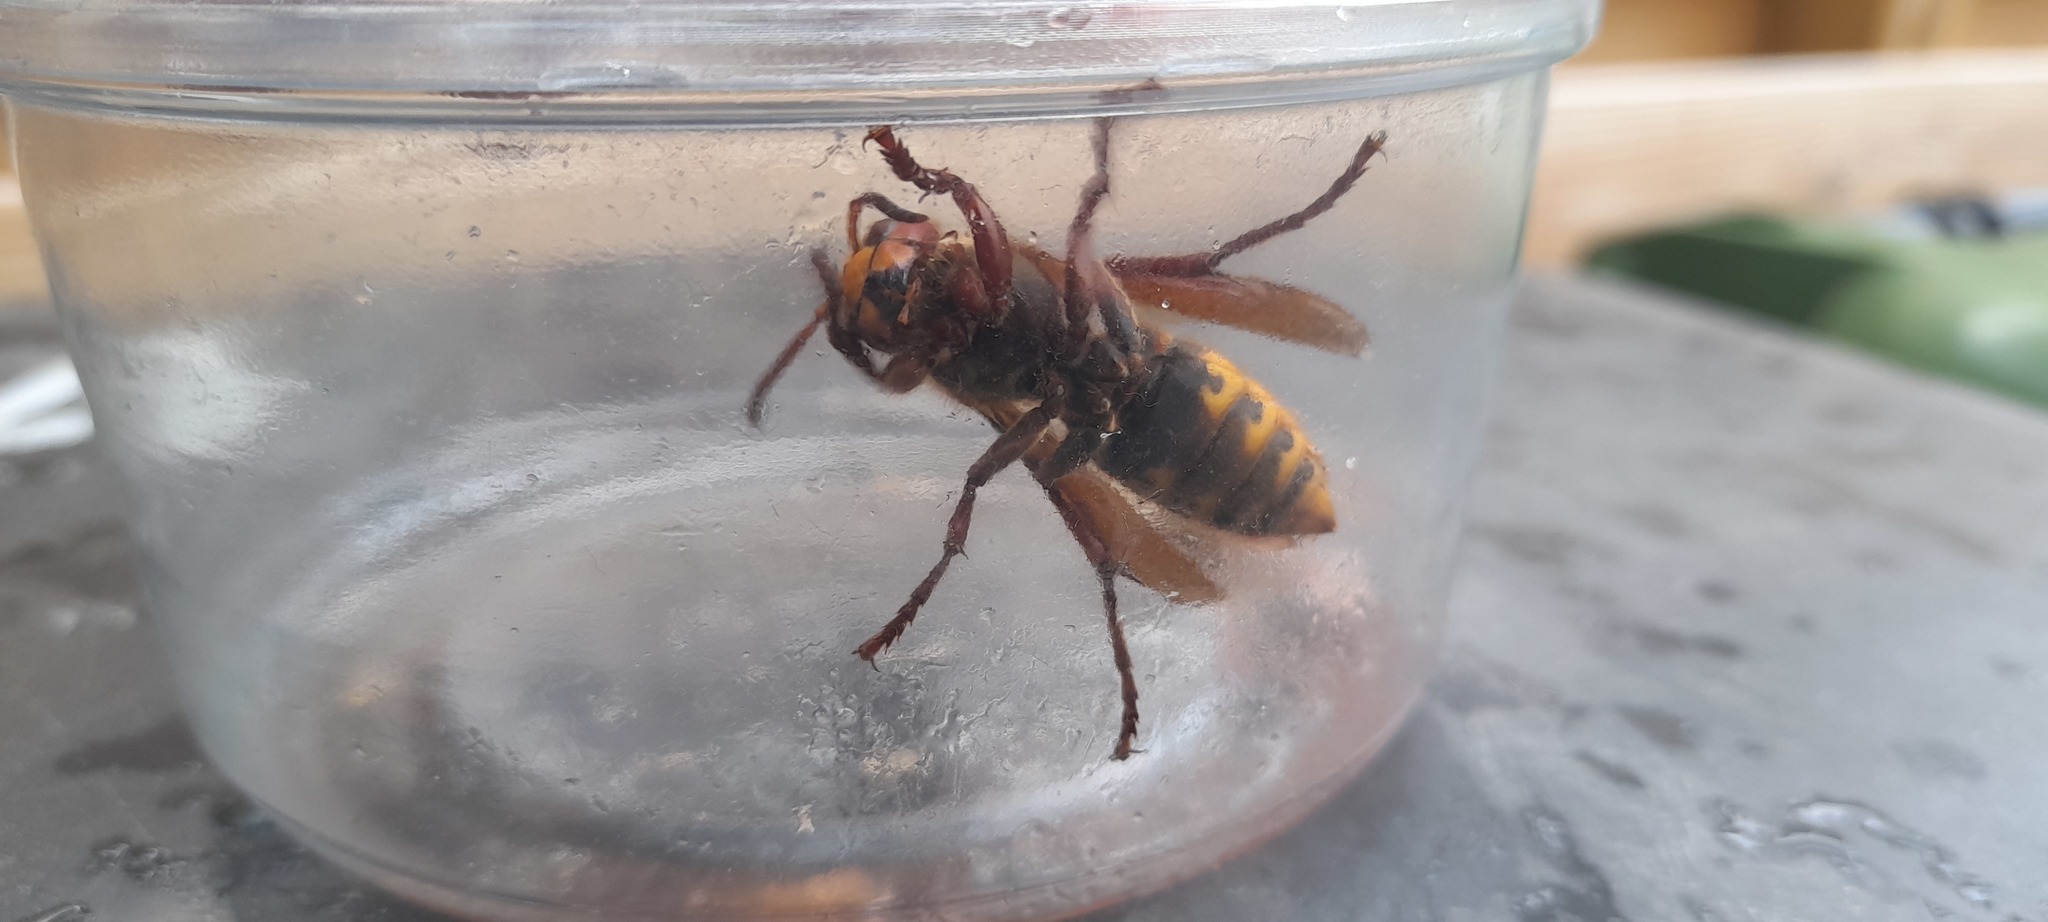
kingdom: Animalia
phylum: Arthropoda
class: Insecta
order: Hymenoptera
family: Vespidae
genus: Vespa
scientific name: Vespa crabro
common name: Hornet
